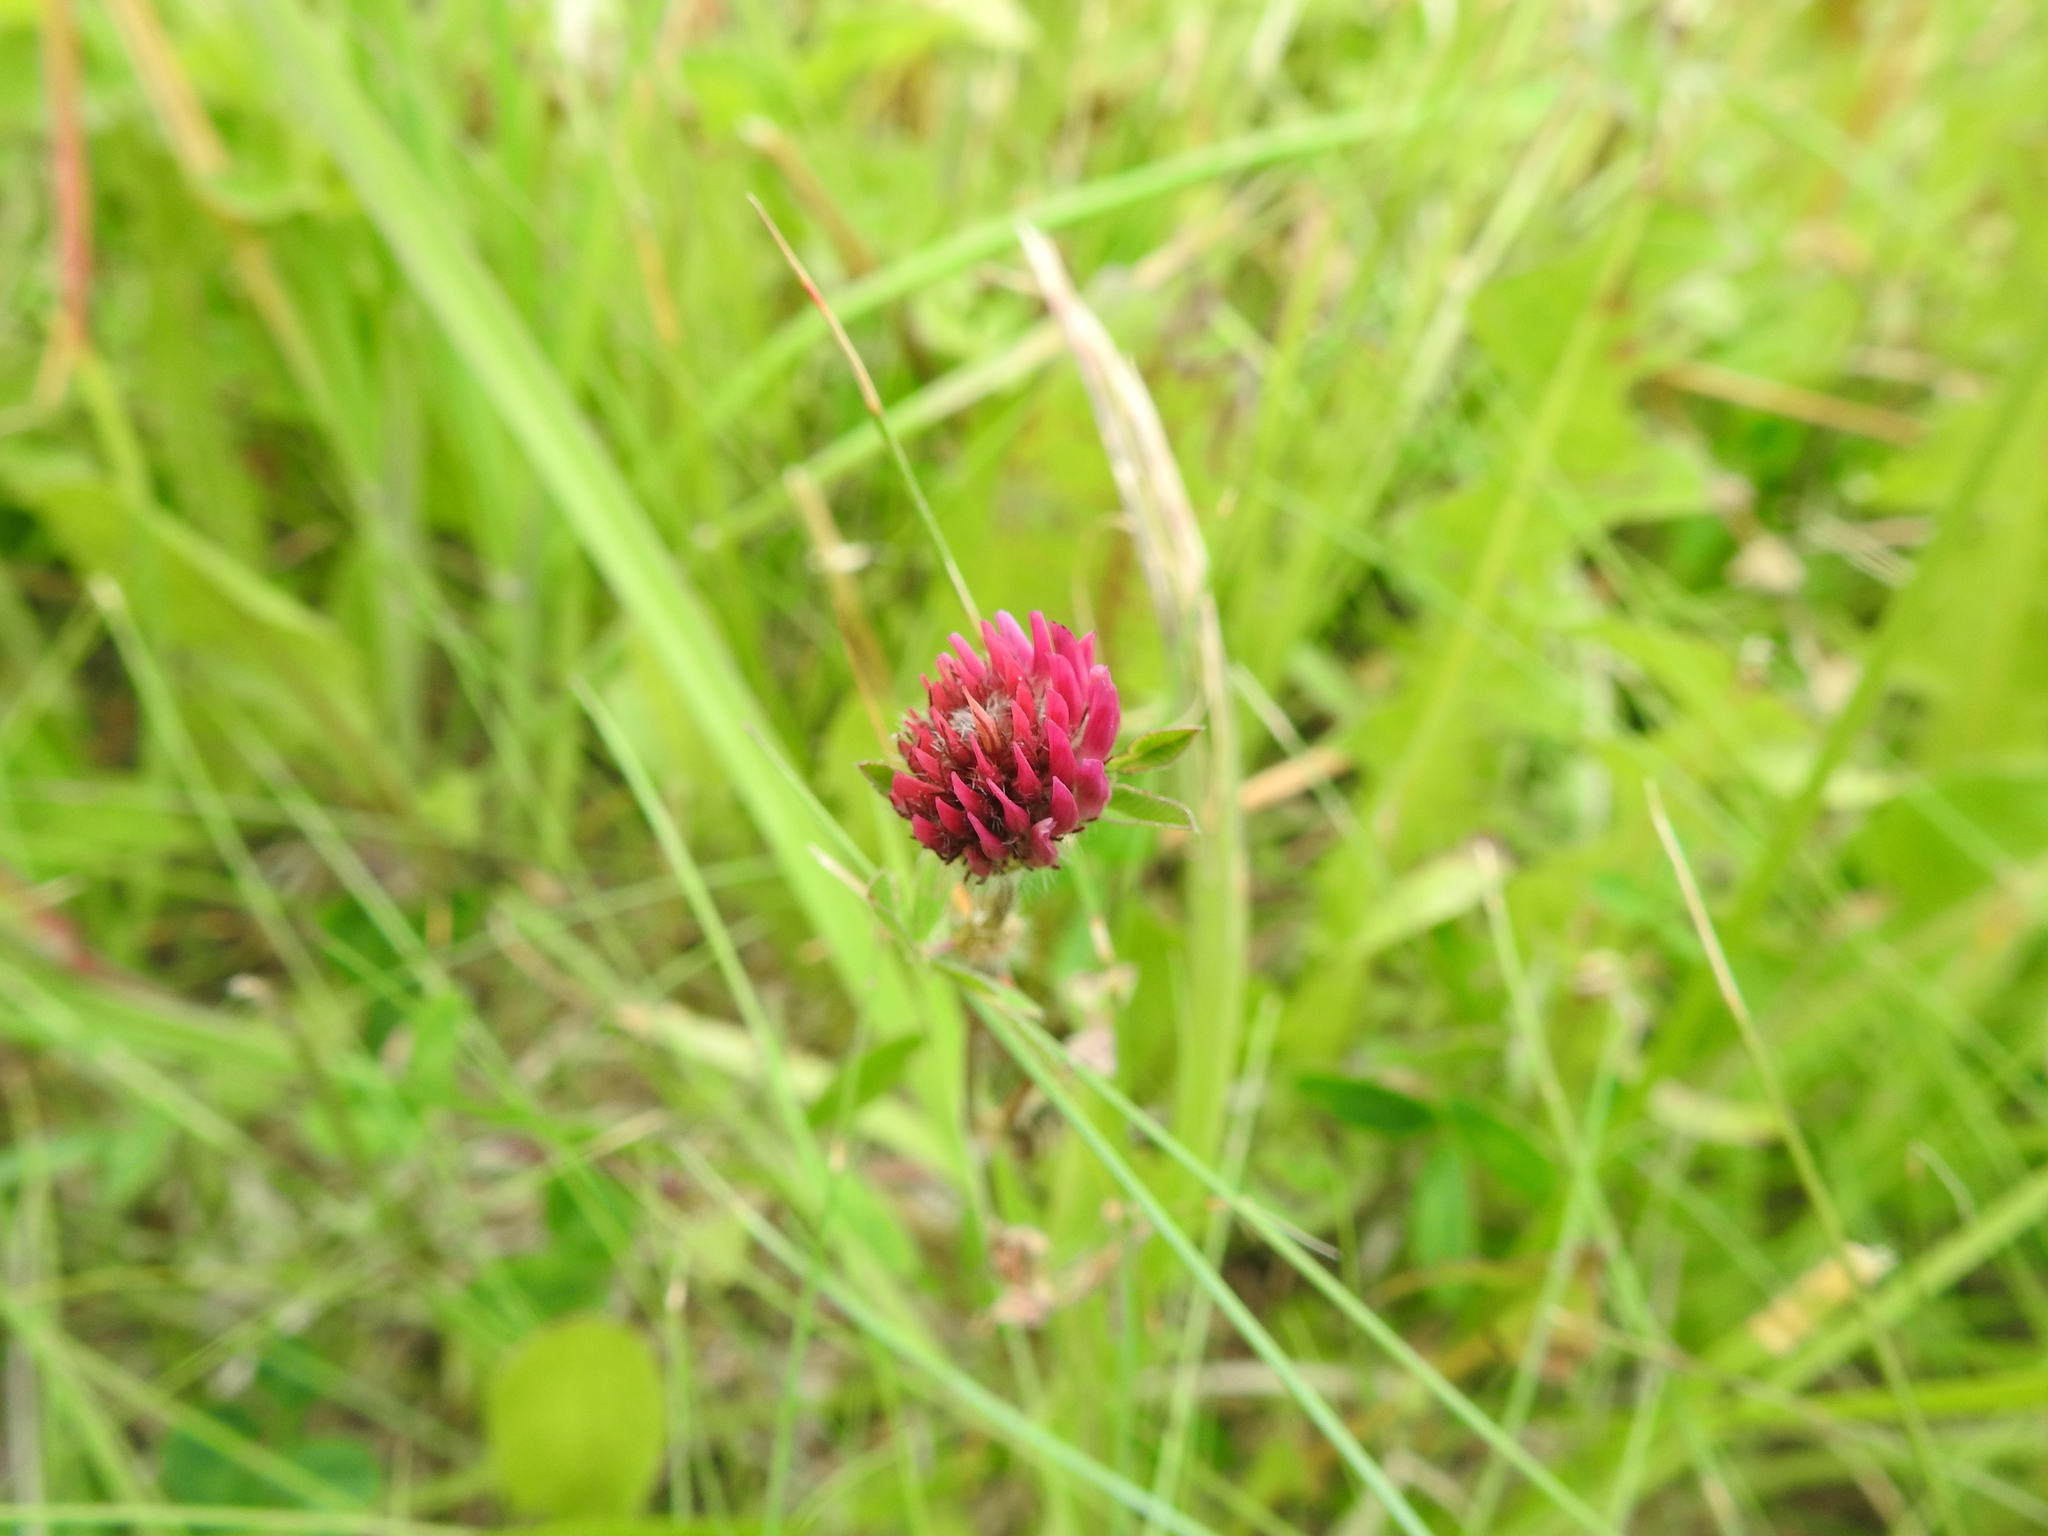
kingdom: Plantae
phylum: Tracheophyta
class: Magnoliopsida
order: Fabales
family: Fabaceae
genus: Trifolium
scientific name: Trifolium pratense
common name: Red clover
